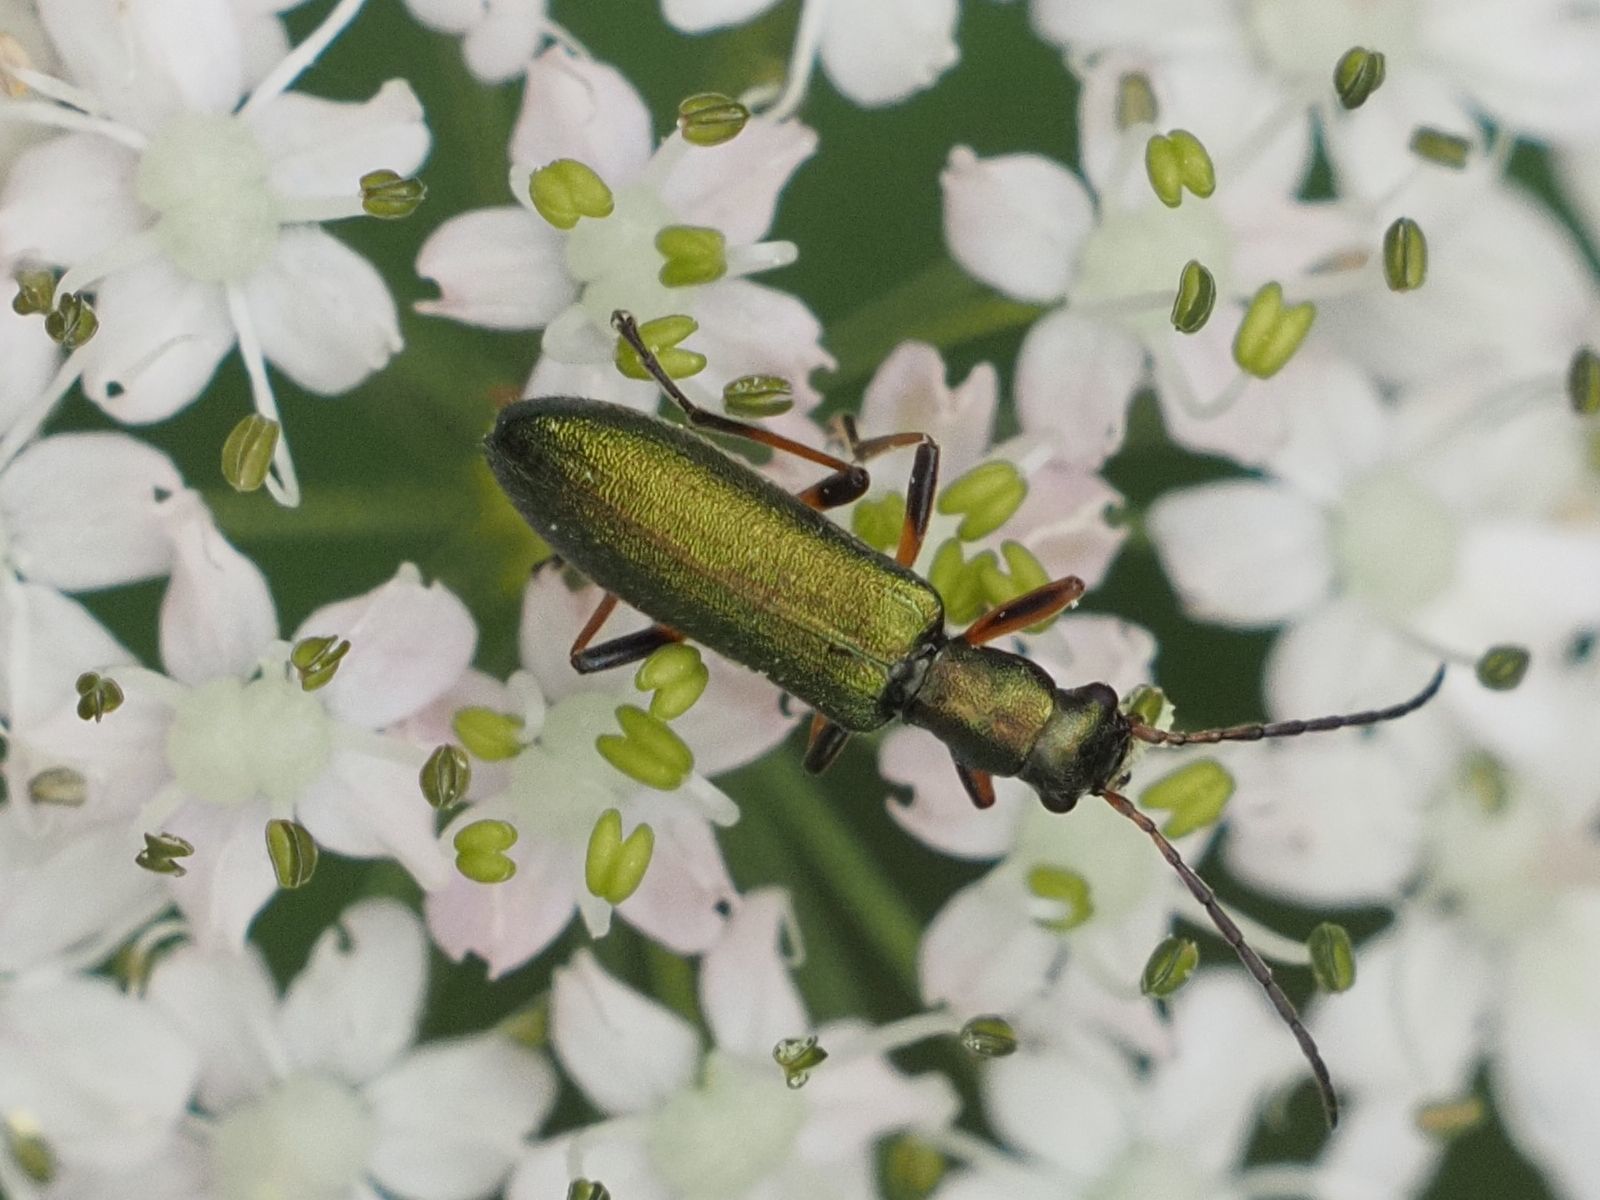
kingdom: Animalia
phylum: Arthropoda
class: Insecta
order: Coleoptera
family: Oedemeridae
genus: Chrysanthia
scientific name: Chrysanthia geniculata
